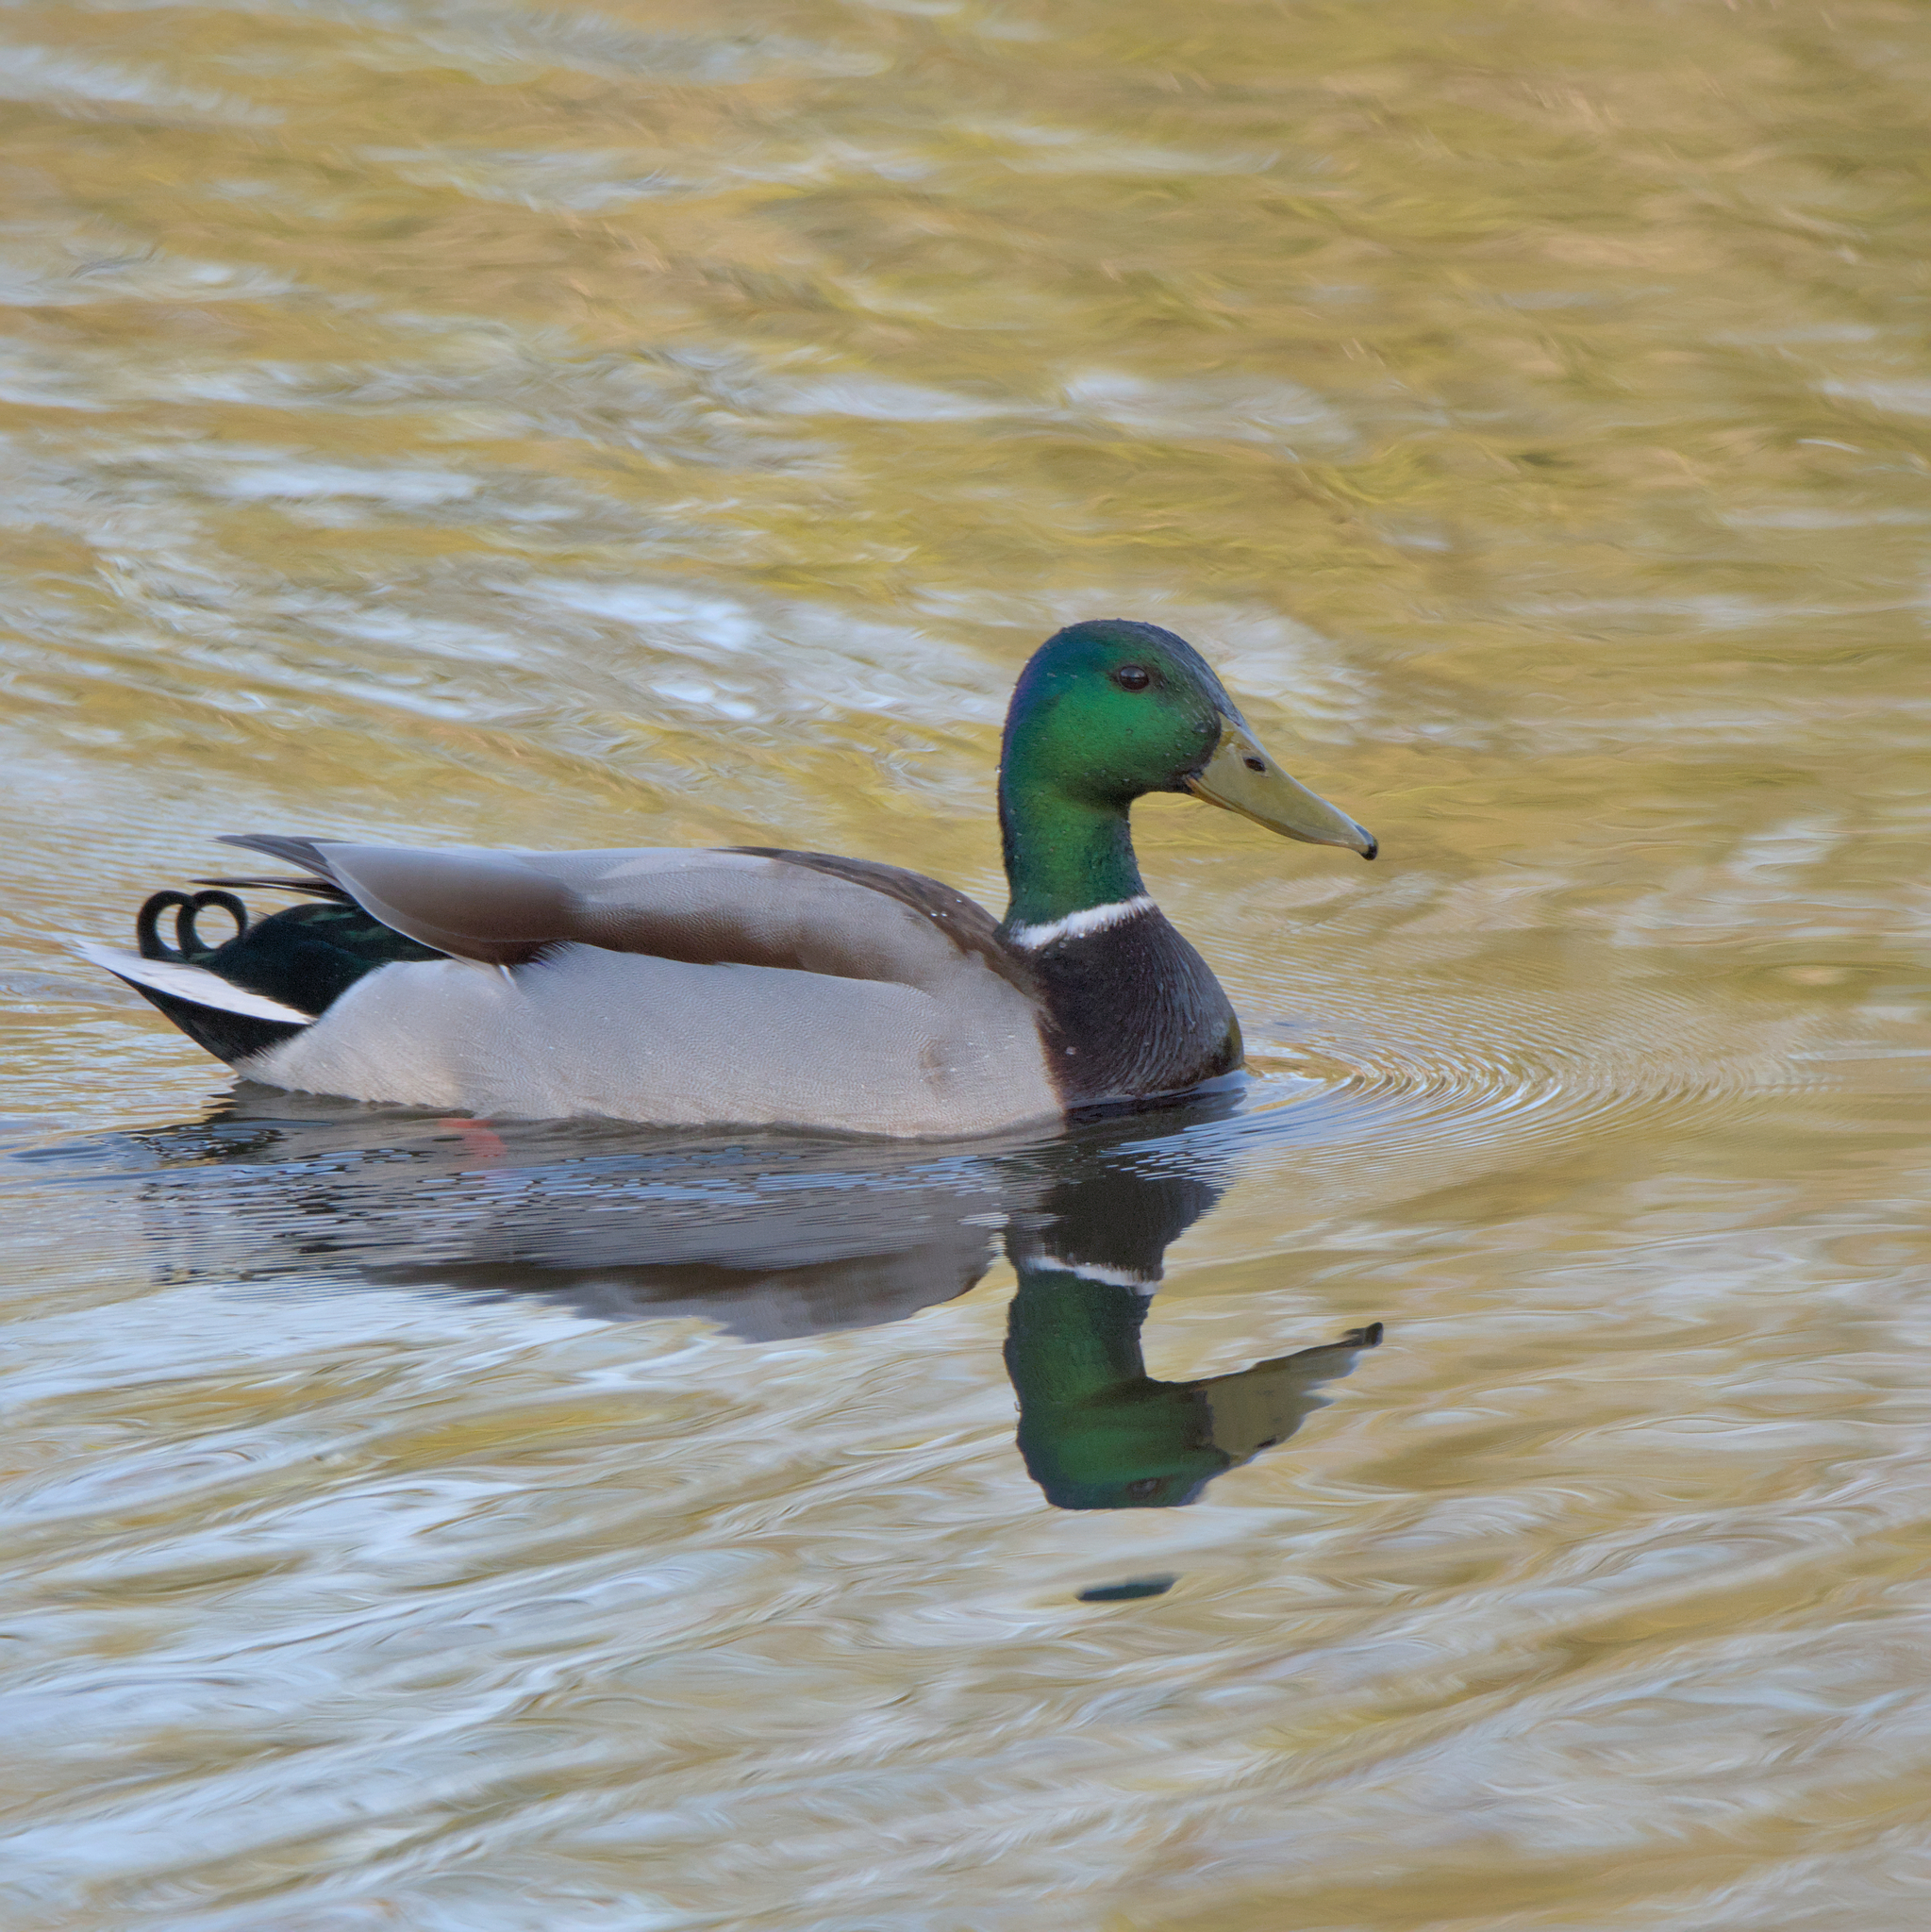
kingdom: Animalia
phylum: Chordata
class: Aves
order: Anseriformes
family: Anatidae
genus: Anas
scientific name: Anas platyrhynchos
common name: Mallard
